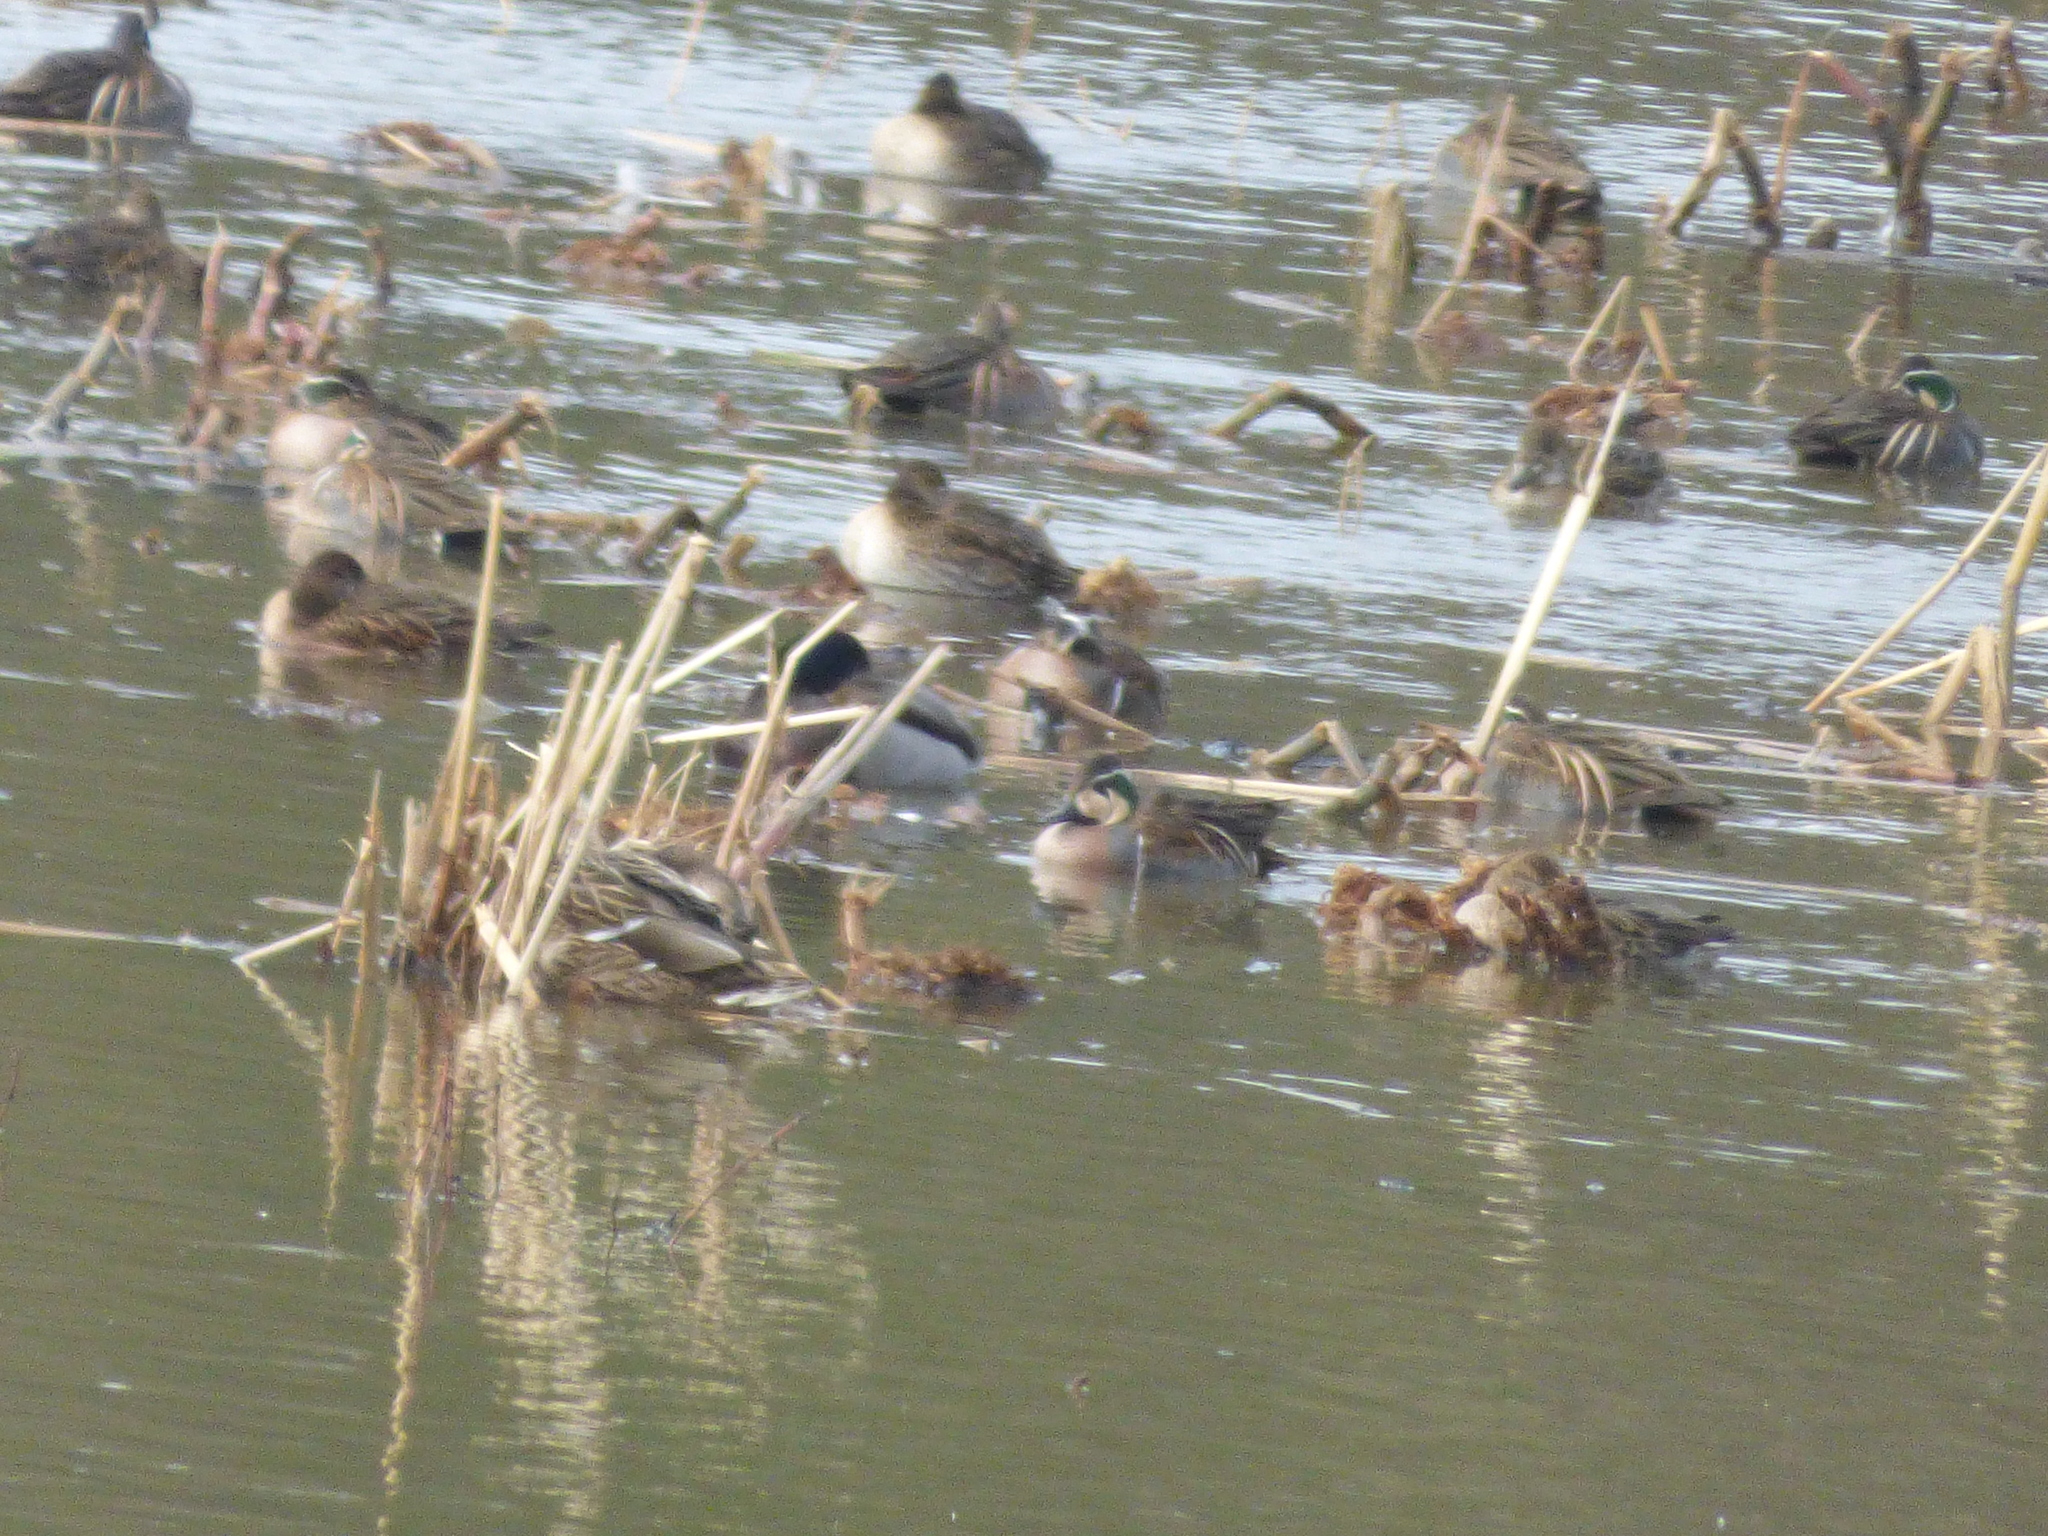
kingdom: Animalia
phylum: Chordata
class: Aves
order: Anseriformes
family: Anatidae
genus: Sibirionetta
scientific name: Sibirionetta formosa
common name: Baikal teal
